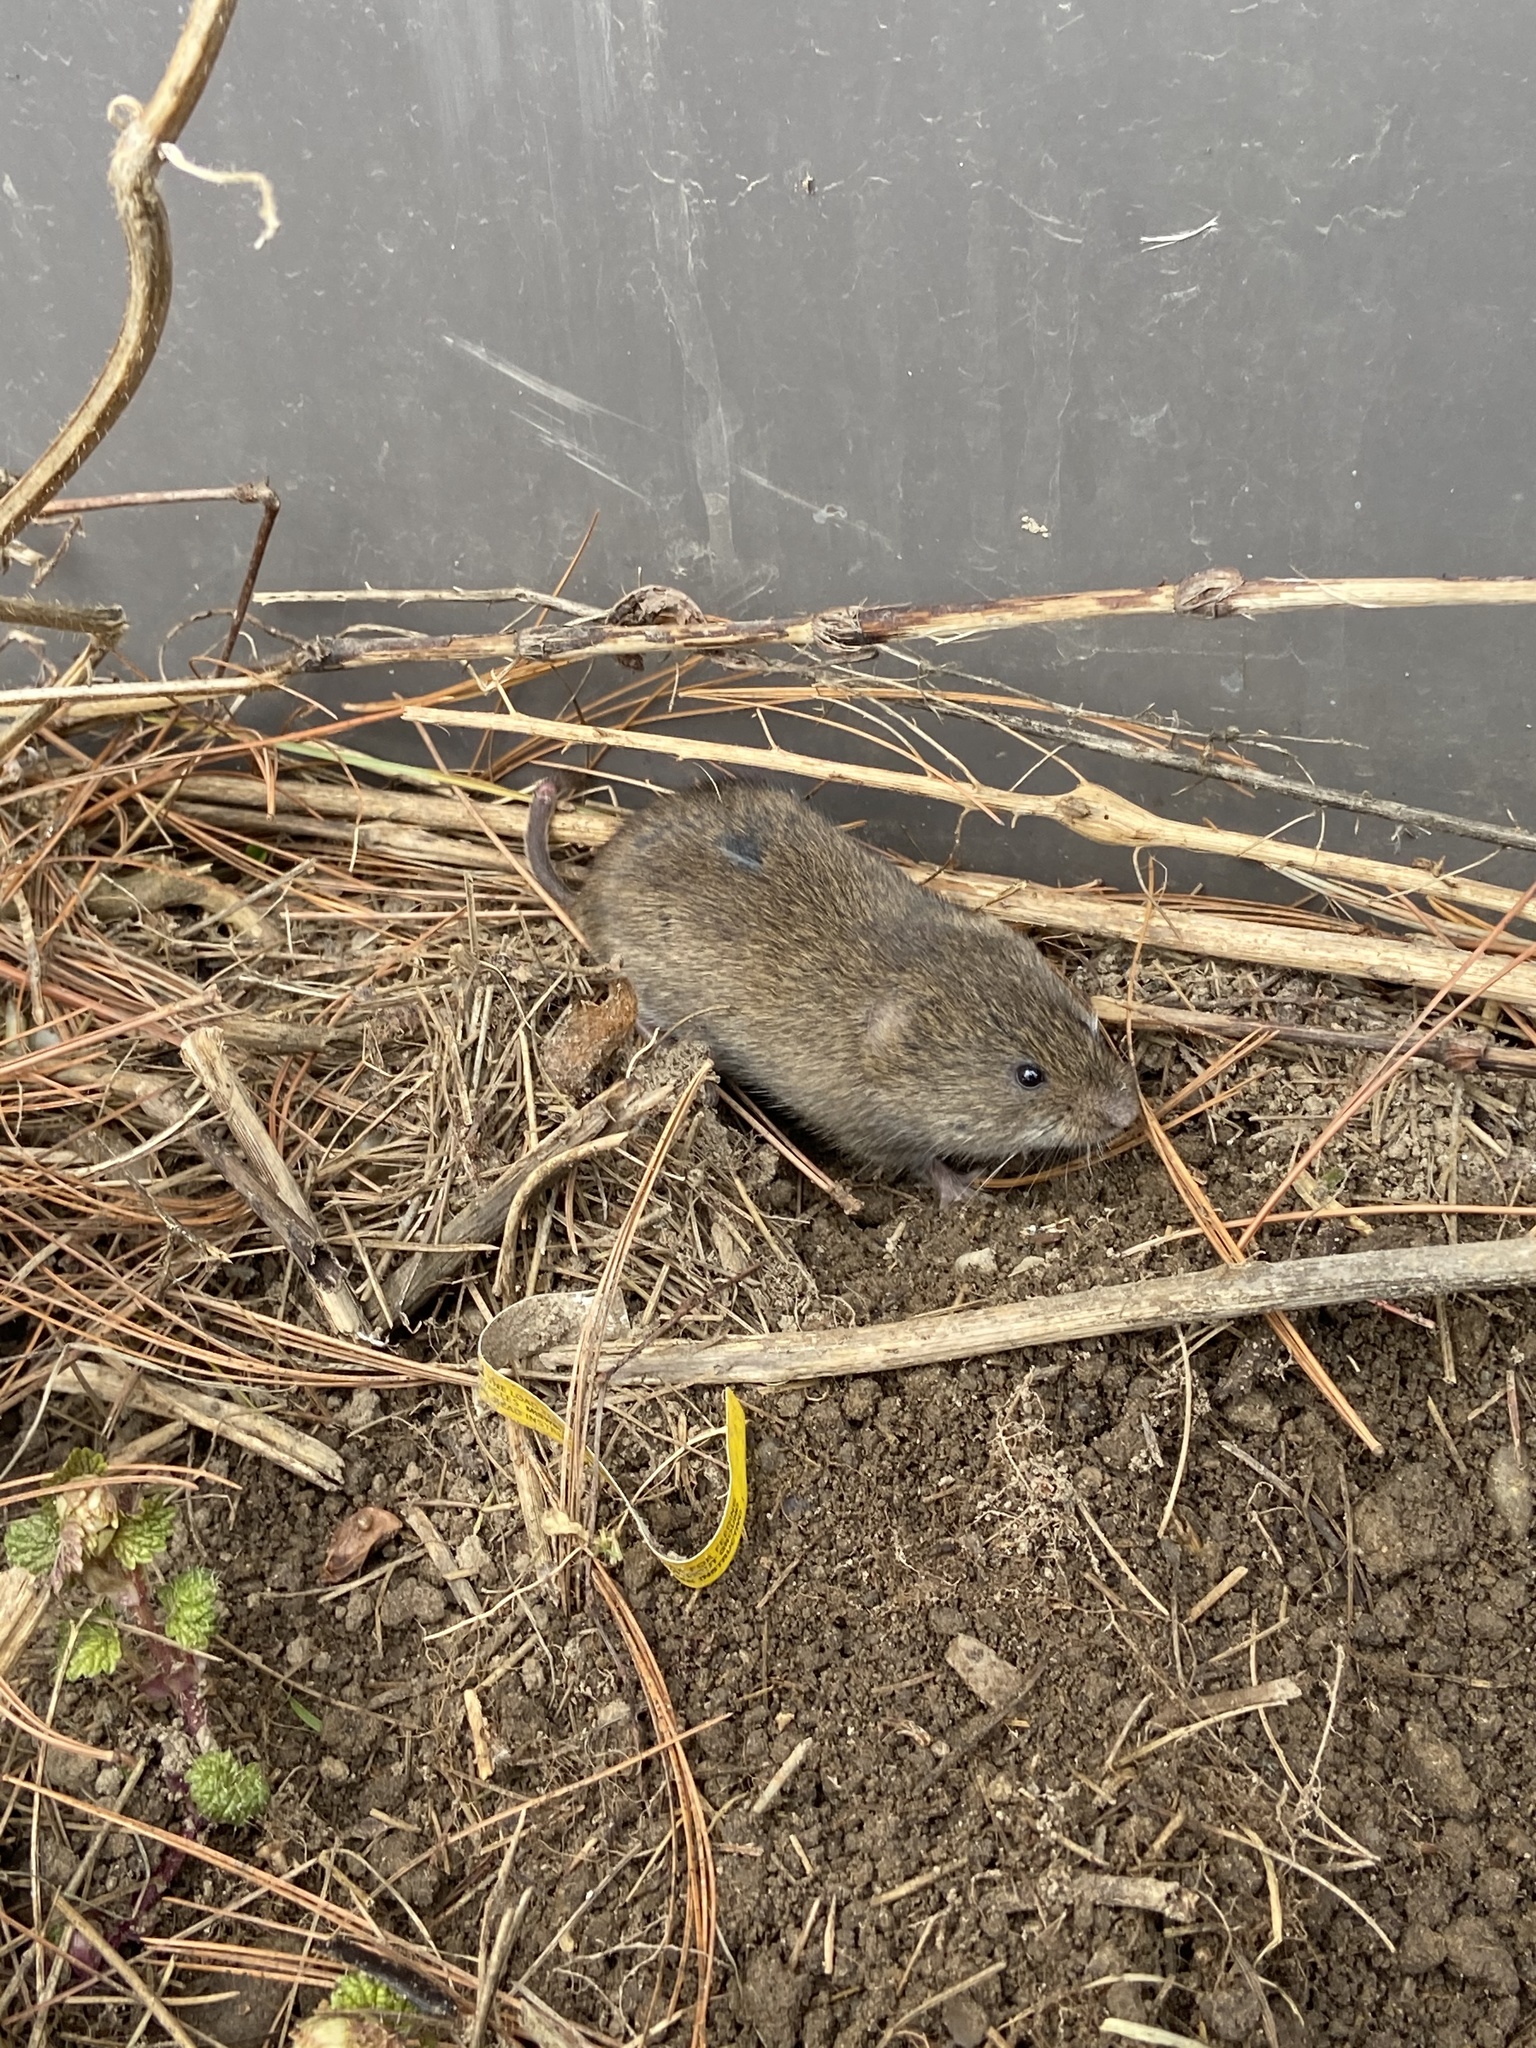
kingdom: Animalia
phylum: Chordata
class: Mammalia
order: Rodentia
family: Cricetidae
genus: Microtus
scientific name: Microtus pennsylvanicus
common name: Meadow vole
